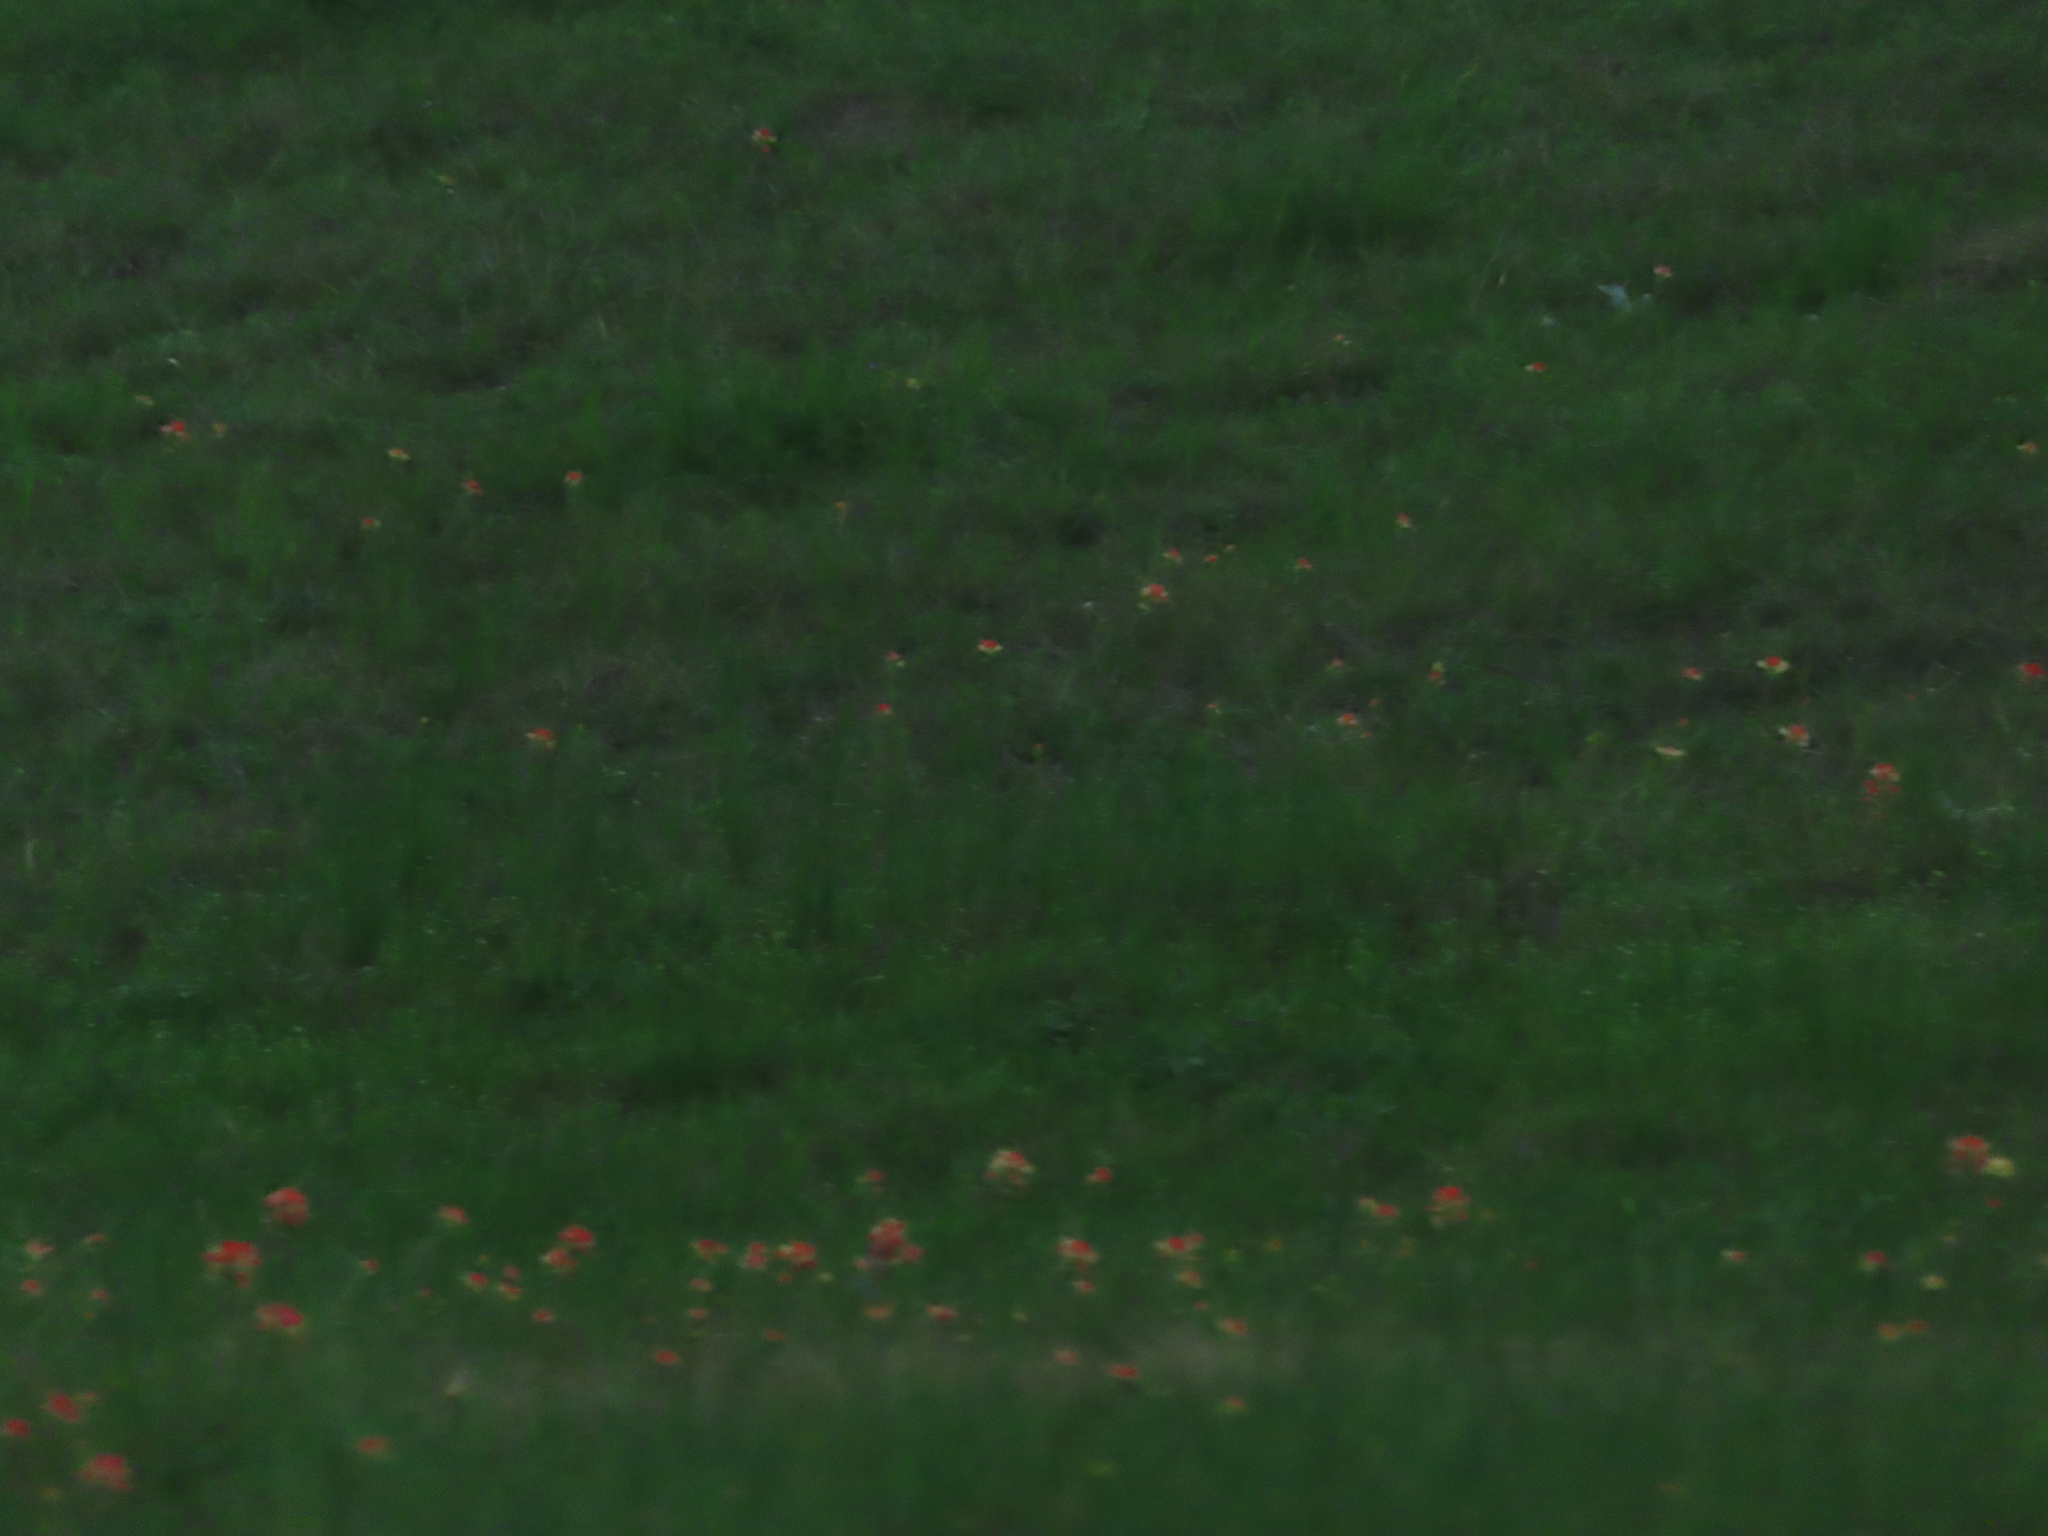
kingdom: Plantae
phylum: Tracheophyta
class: Magnoliopsida
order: Lamiales
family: Orobanchaceae
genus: Castilleja
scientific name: Castilleja indivisa
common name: Texas paintbrush
